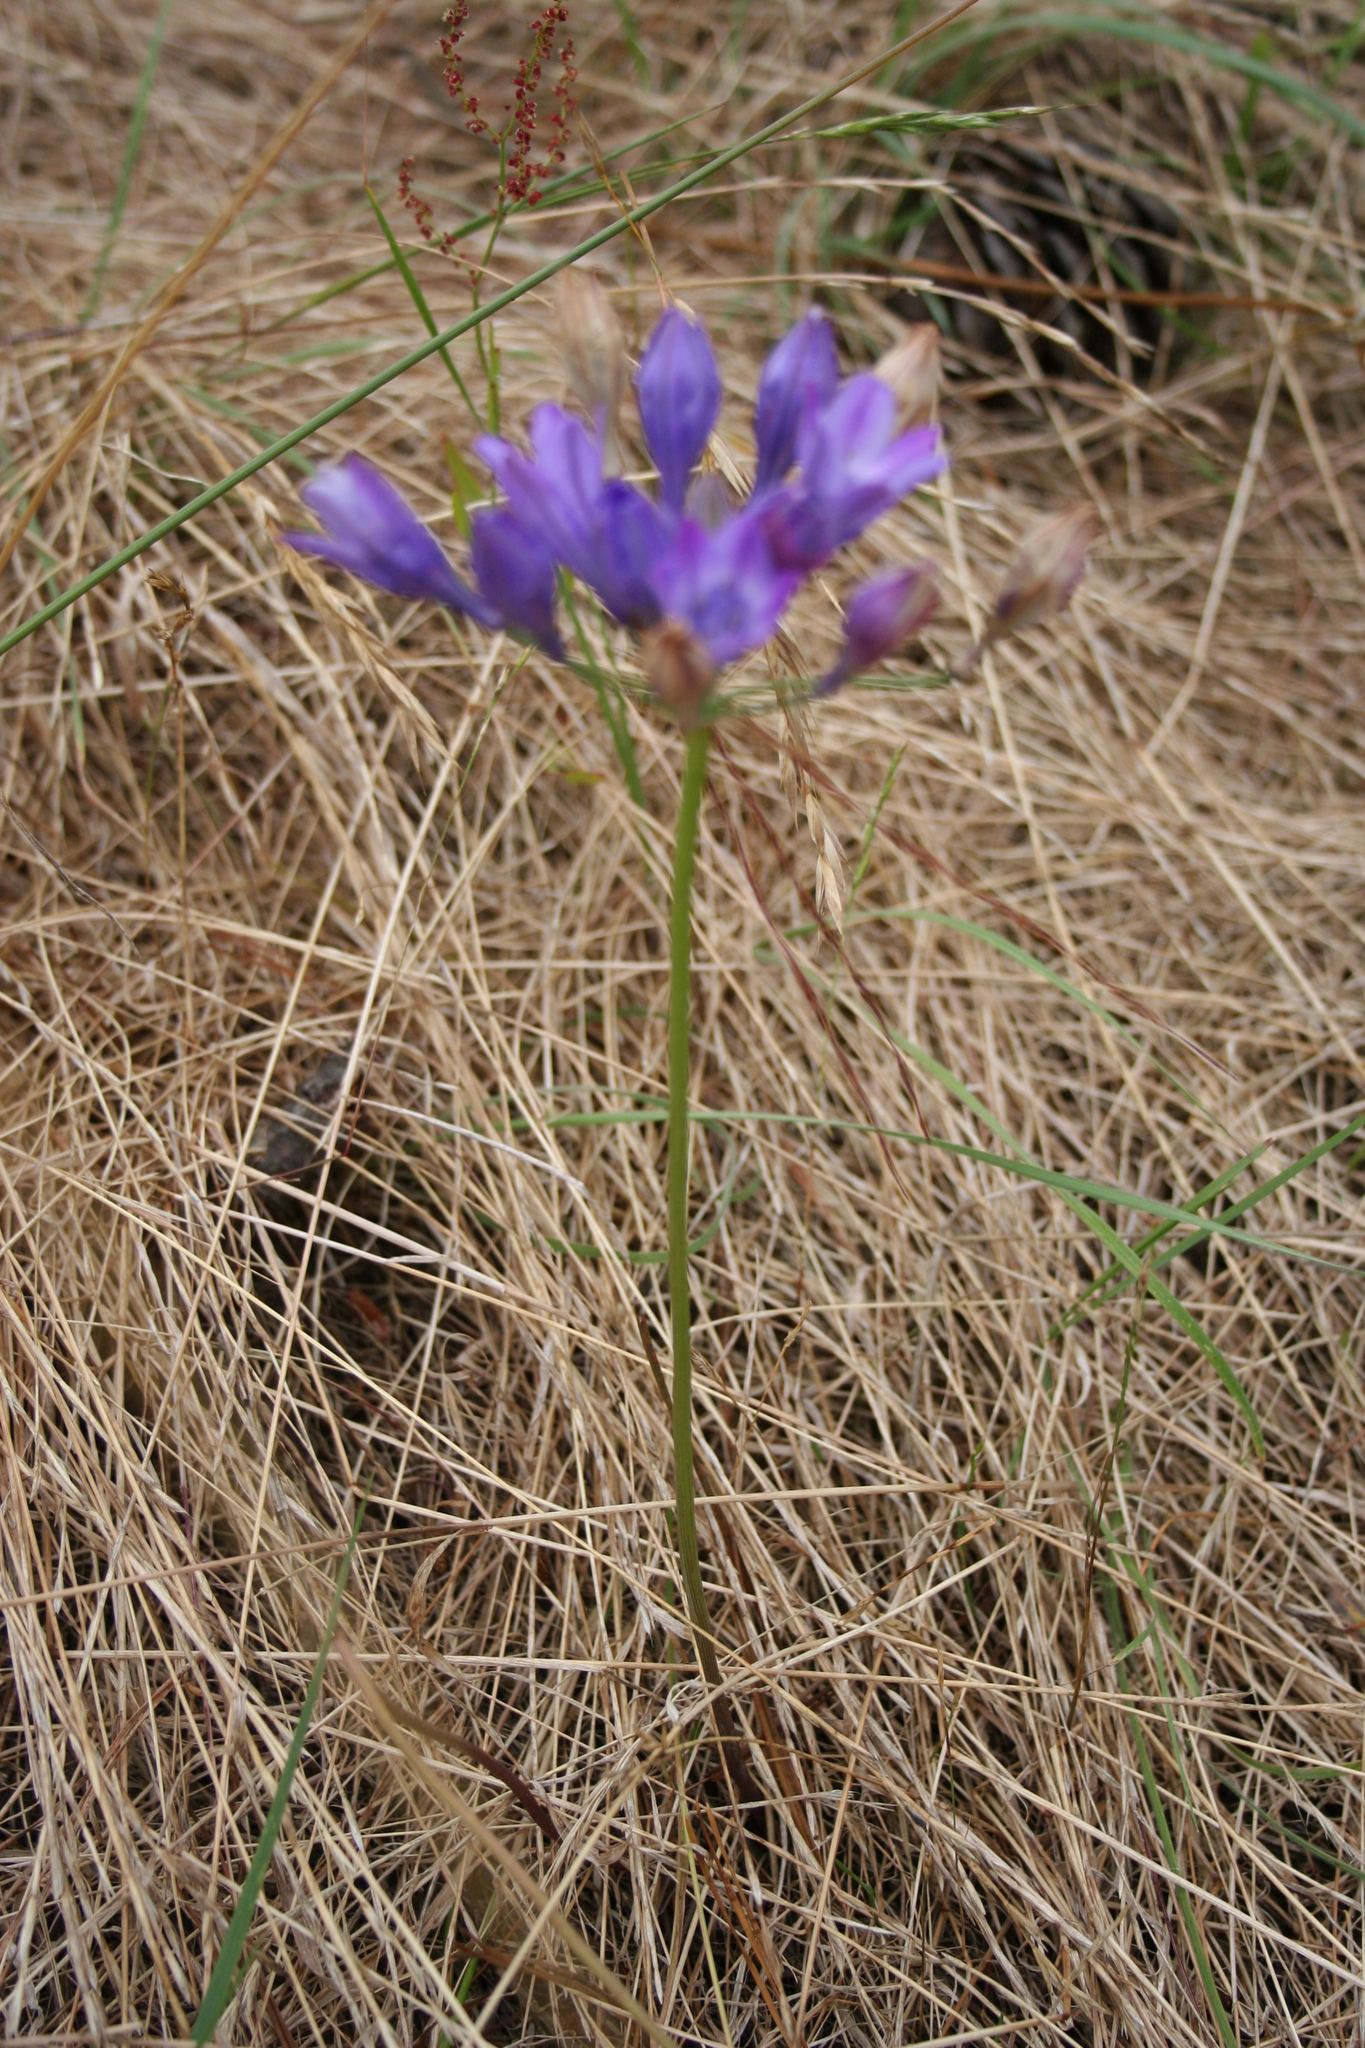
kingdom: Plantae
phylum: Tracheophyta
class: Liliopsida
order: Asparagales
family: Asparagaceae
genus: Triteleia
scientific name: Triteleia laxa
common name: Triplet-lily
